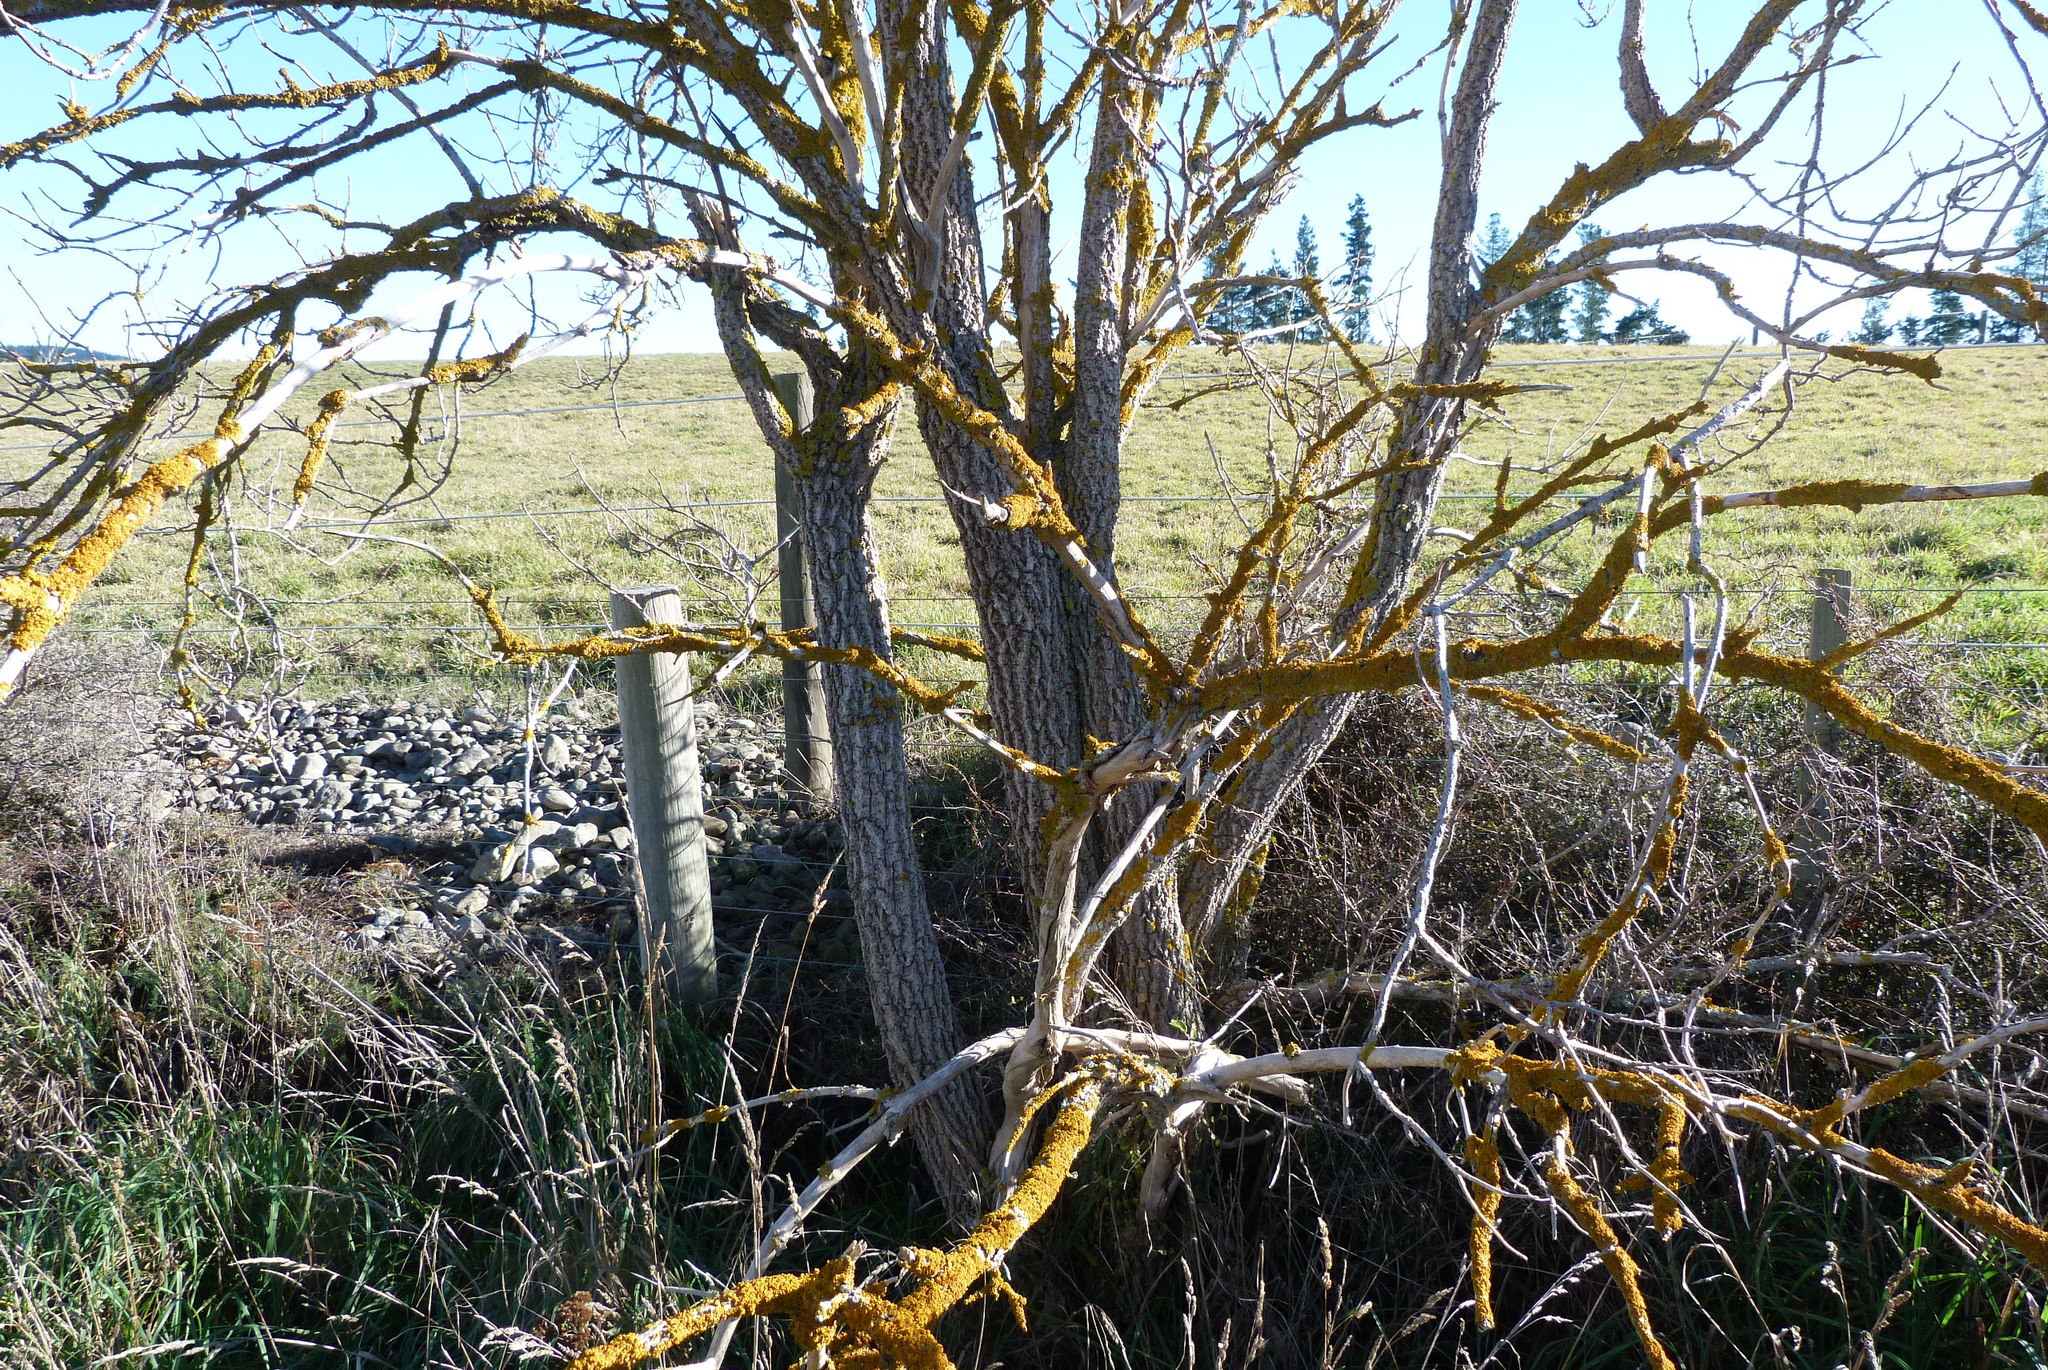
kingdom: Plantae
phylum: Tracheophyta
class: Magnoliopsida
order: Dipsacales
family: Viburnaceae
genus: Sambucus
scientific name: Sambucus nigra
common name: Elder
